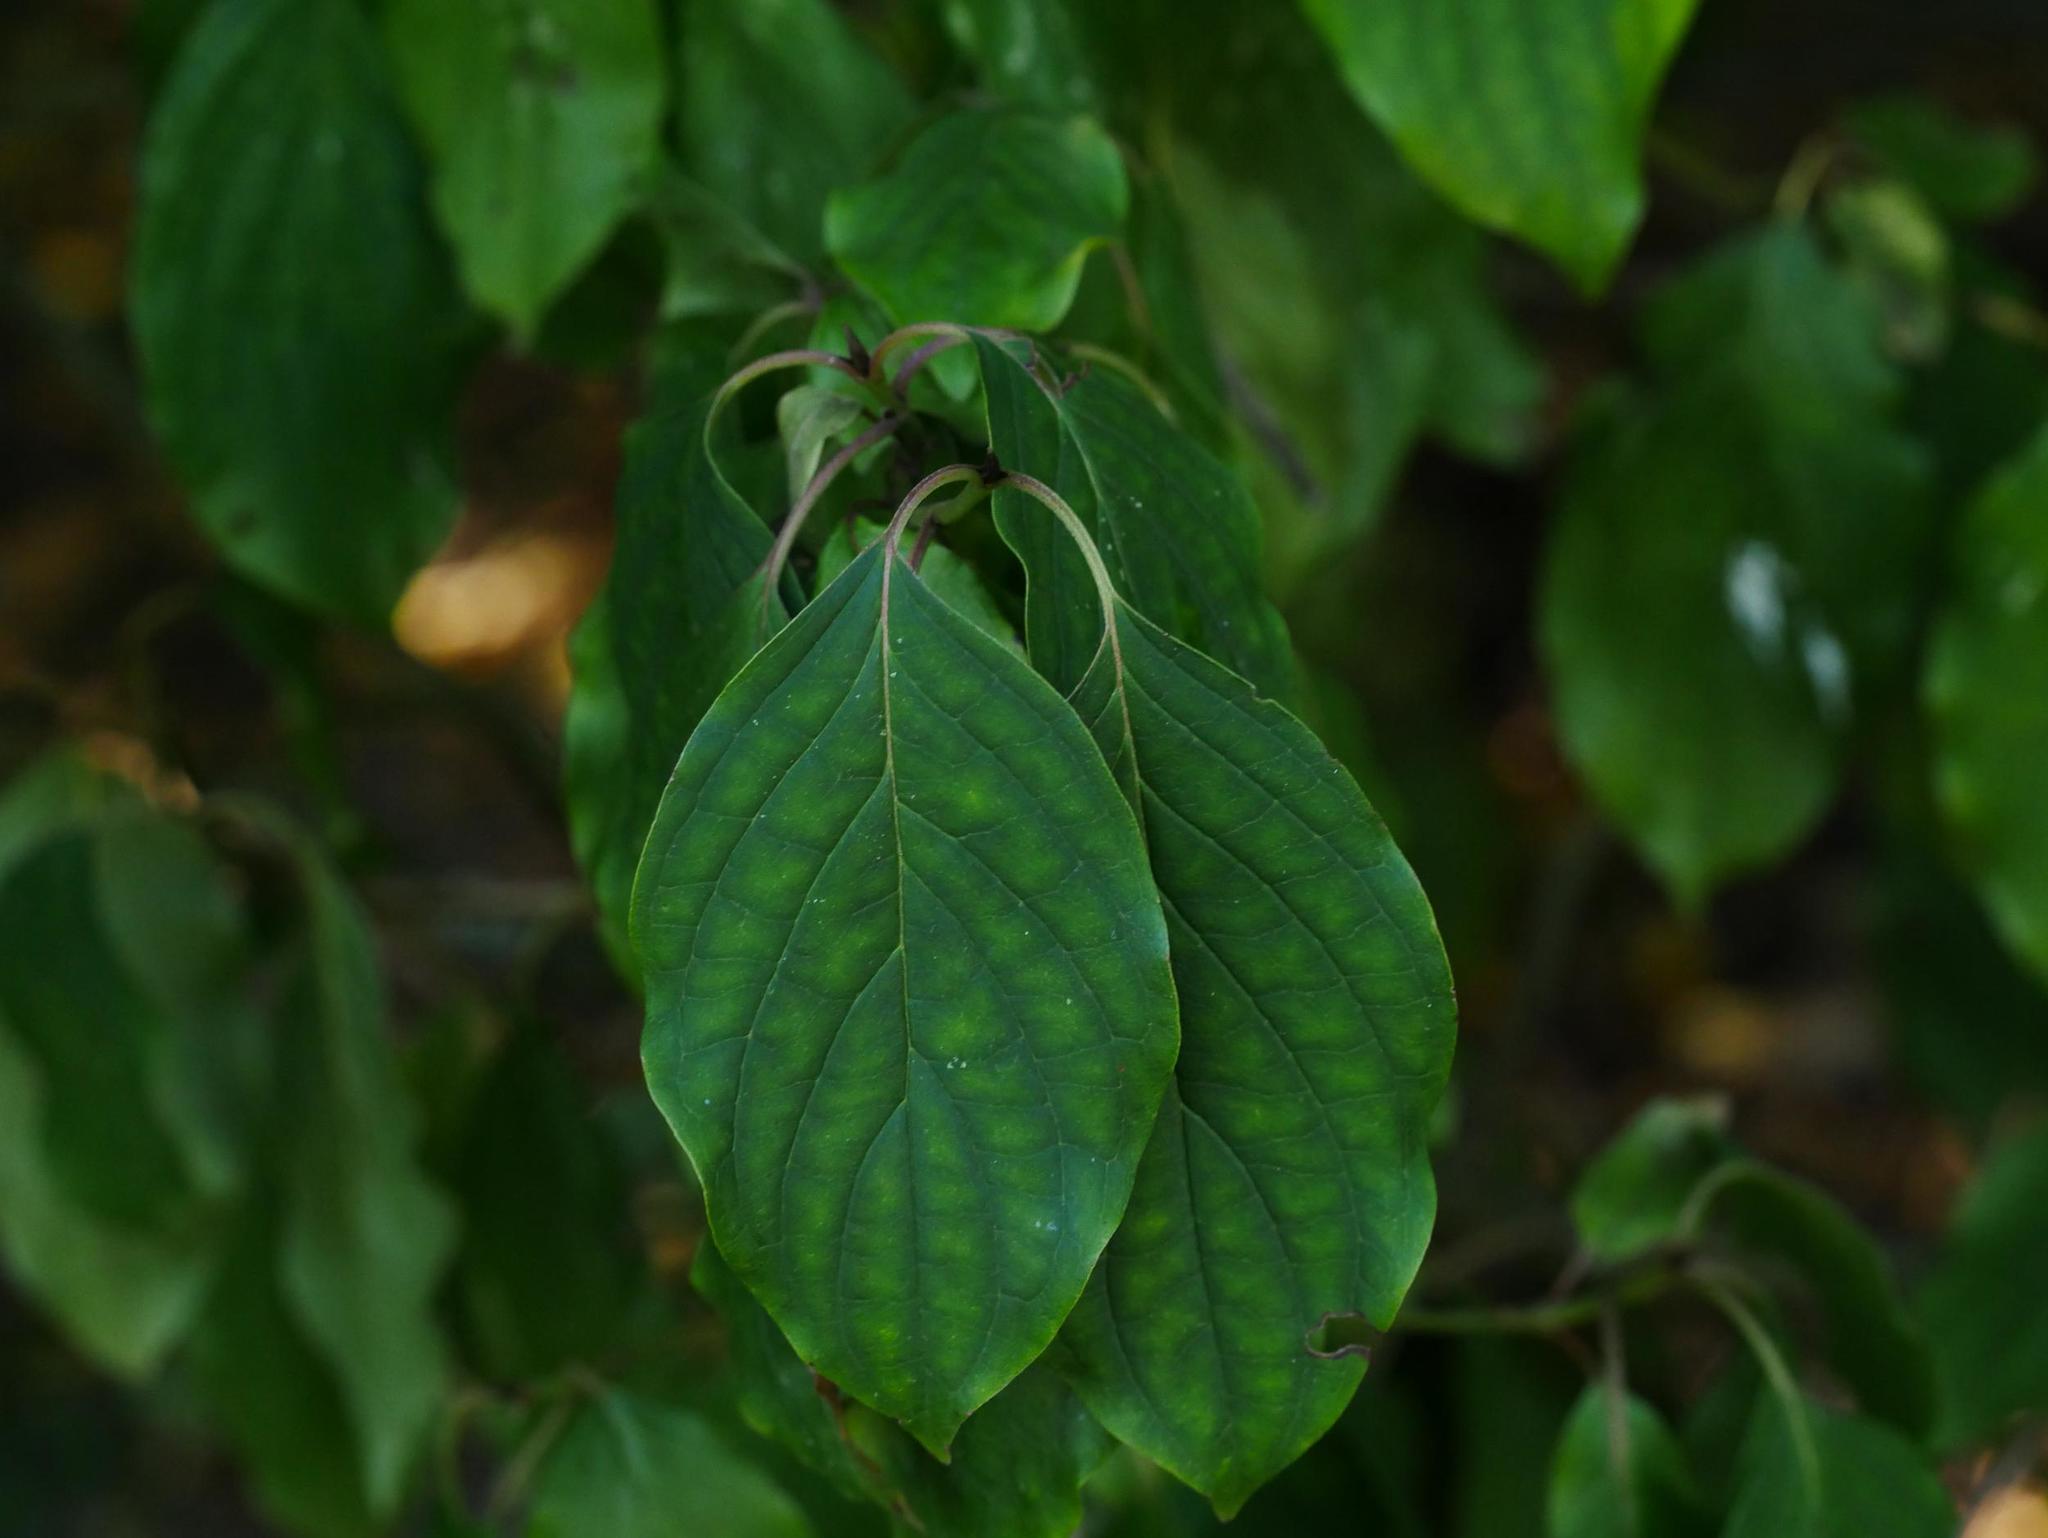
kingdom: Plantae
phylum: Tracheophyta
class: Magnoliopsida
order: Cornales
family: Cornaceae
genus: Cornus
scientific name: Cornus sanguinea
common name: Dogwood
